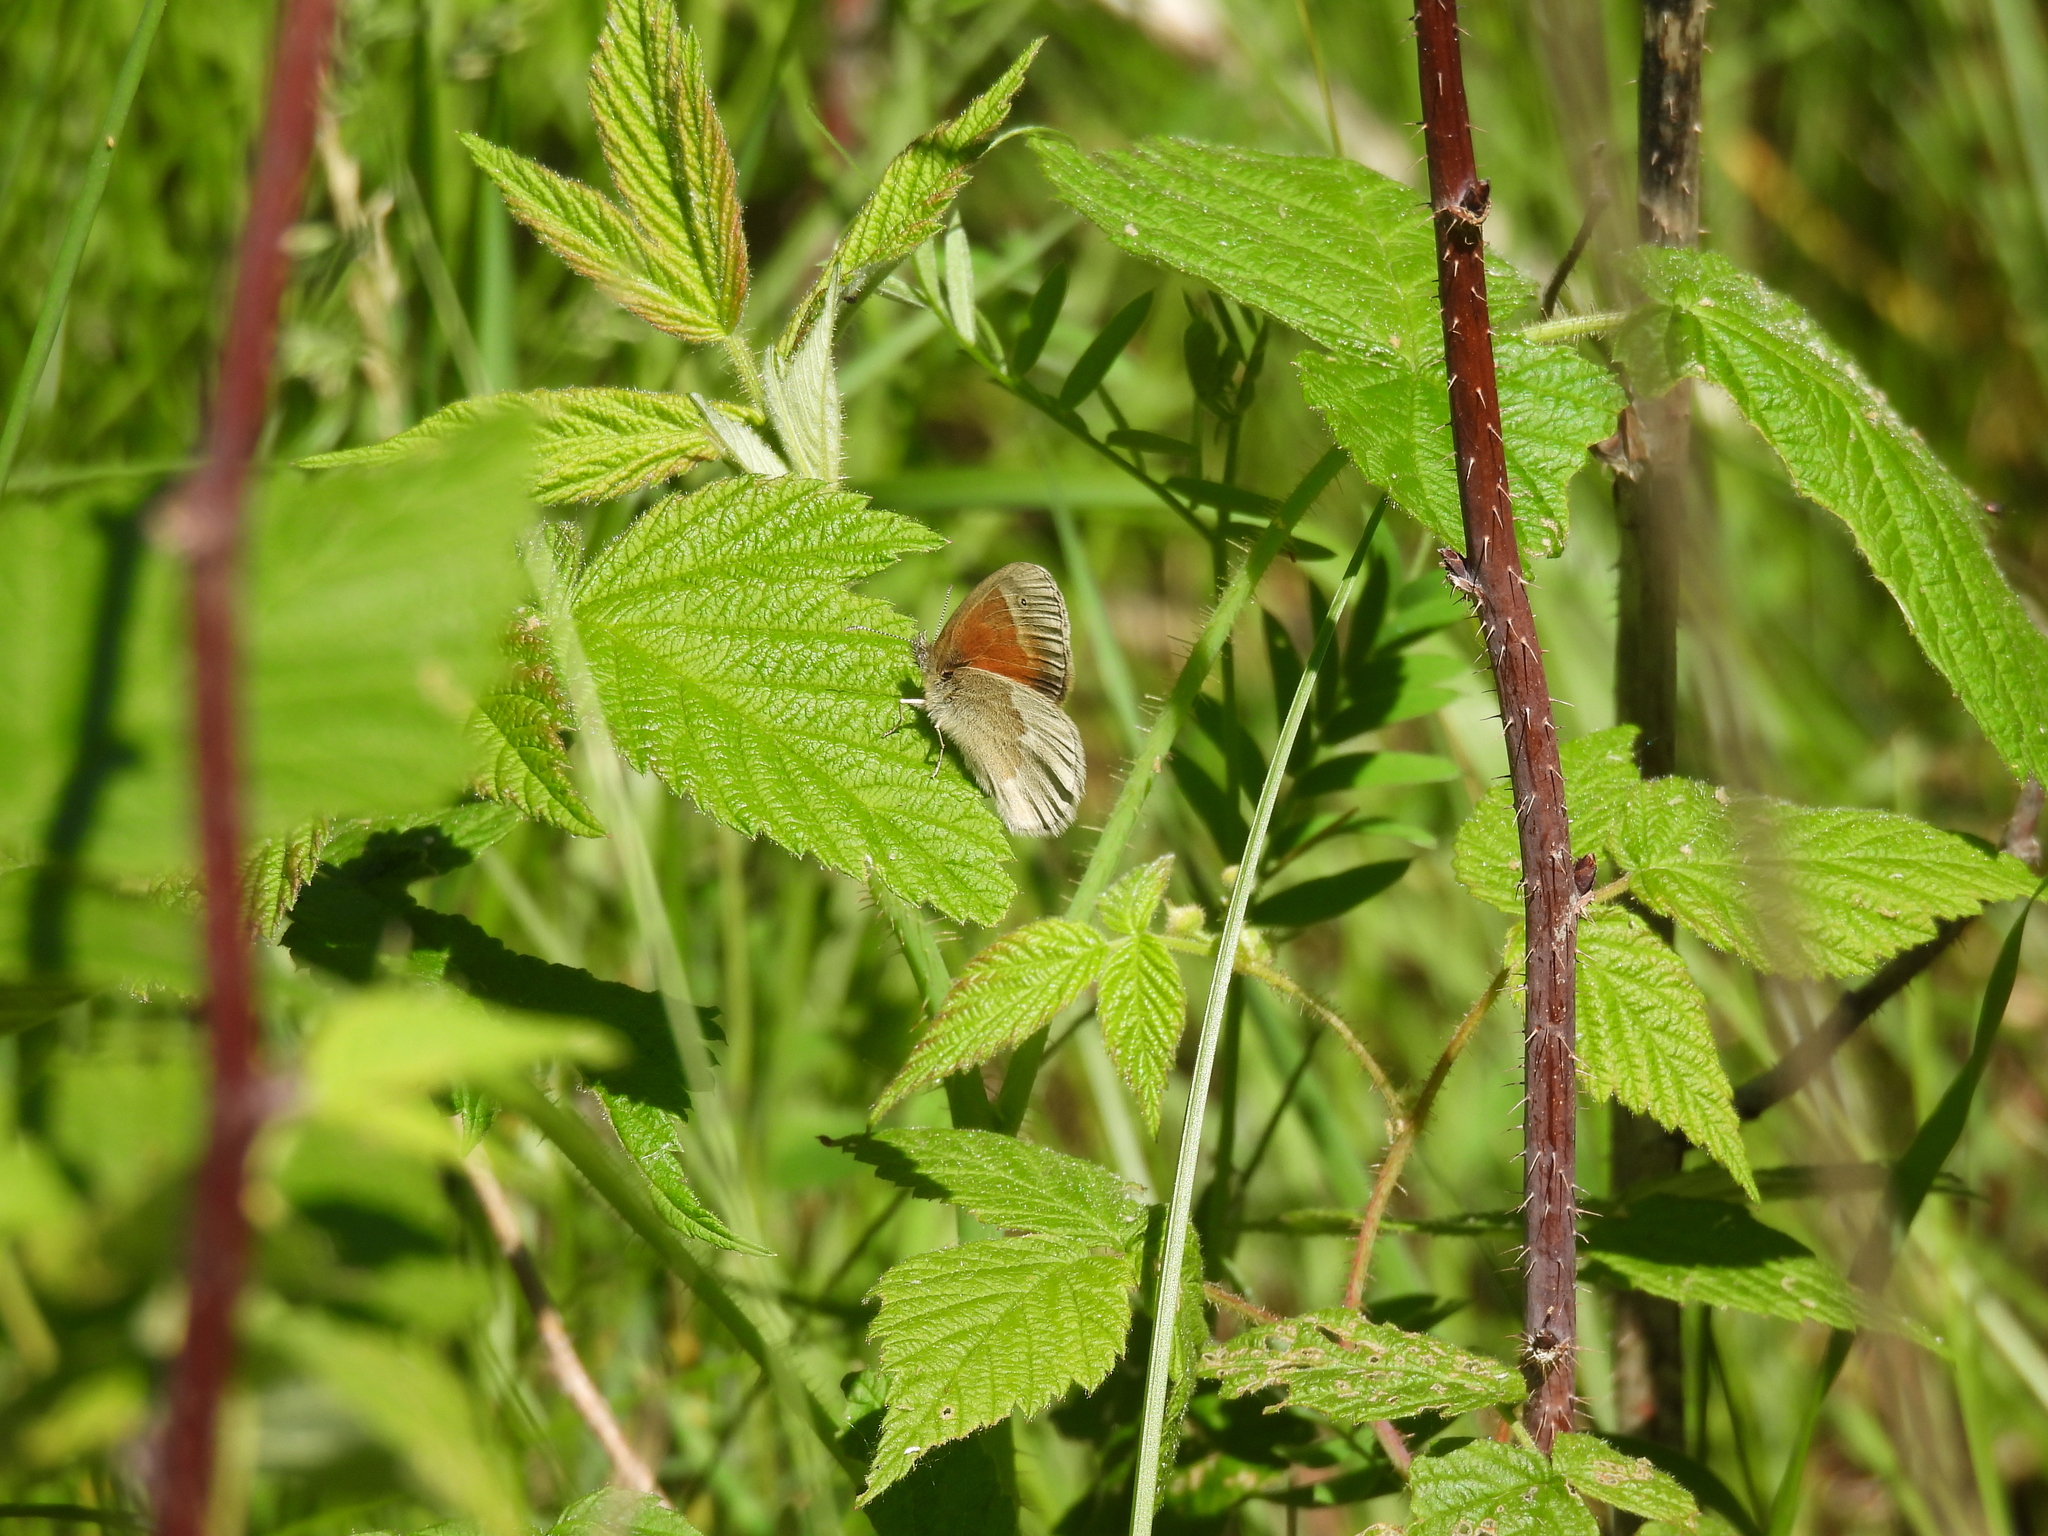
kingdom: Animalia
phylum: Arthropoda
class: Insecta
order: Lepidoptera
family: Nymphalidae
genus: Coenonympha
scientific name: Coenonympha california
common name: Common ringlet
